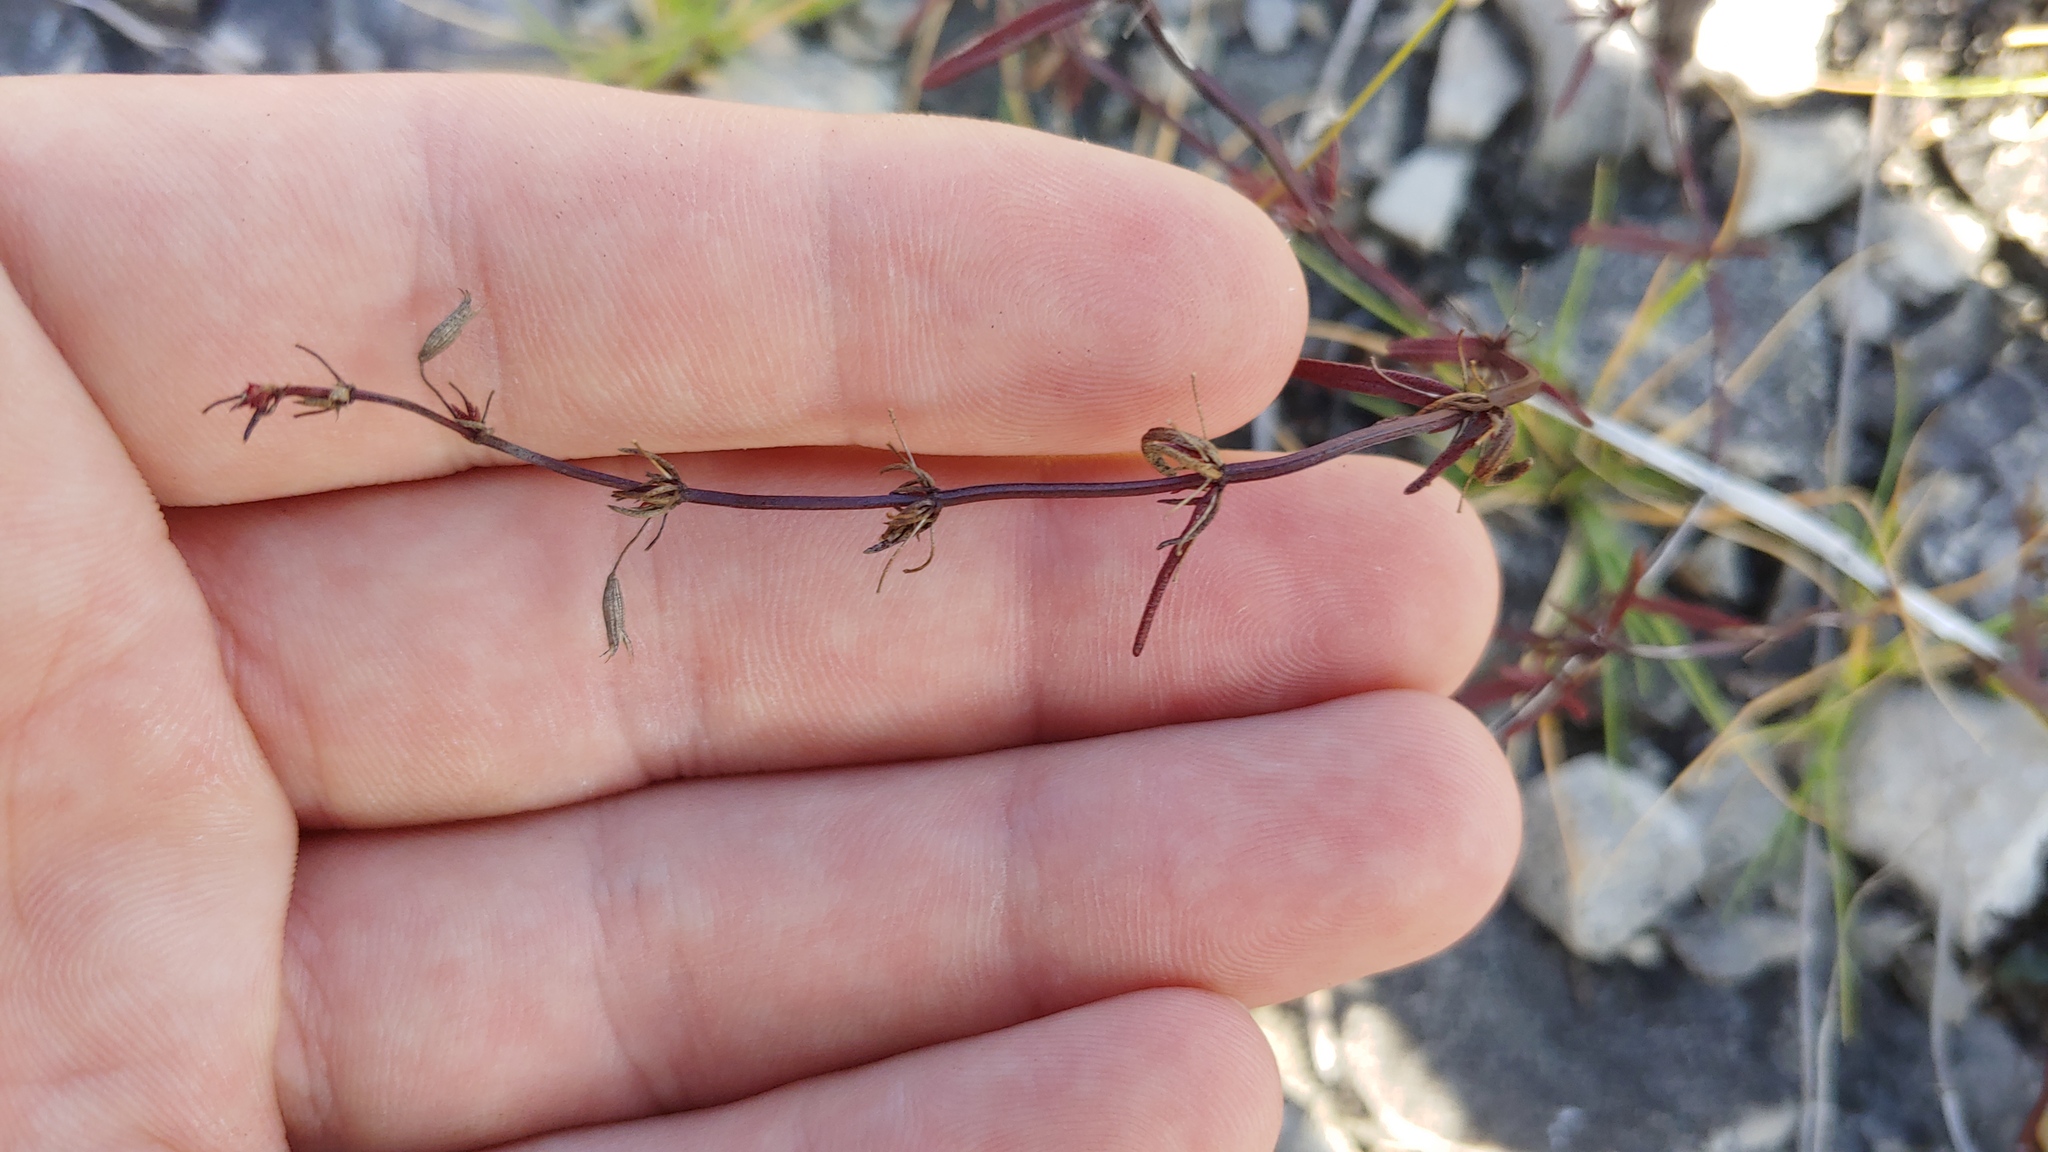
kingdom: Plantae
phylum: Tracheophyta
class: Magnoliopsida
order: Lamiales
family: Lamiaceae
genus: Clinopodium
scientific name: Clinopodium arkansanum
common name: Limestone calamint
